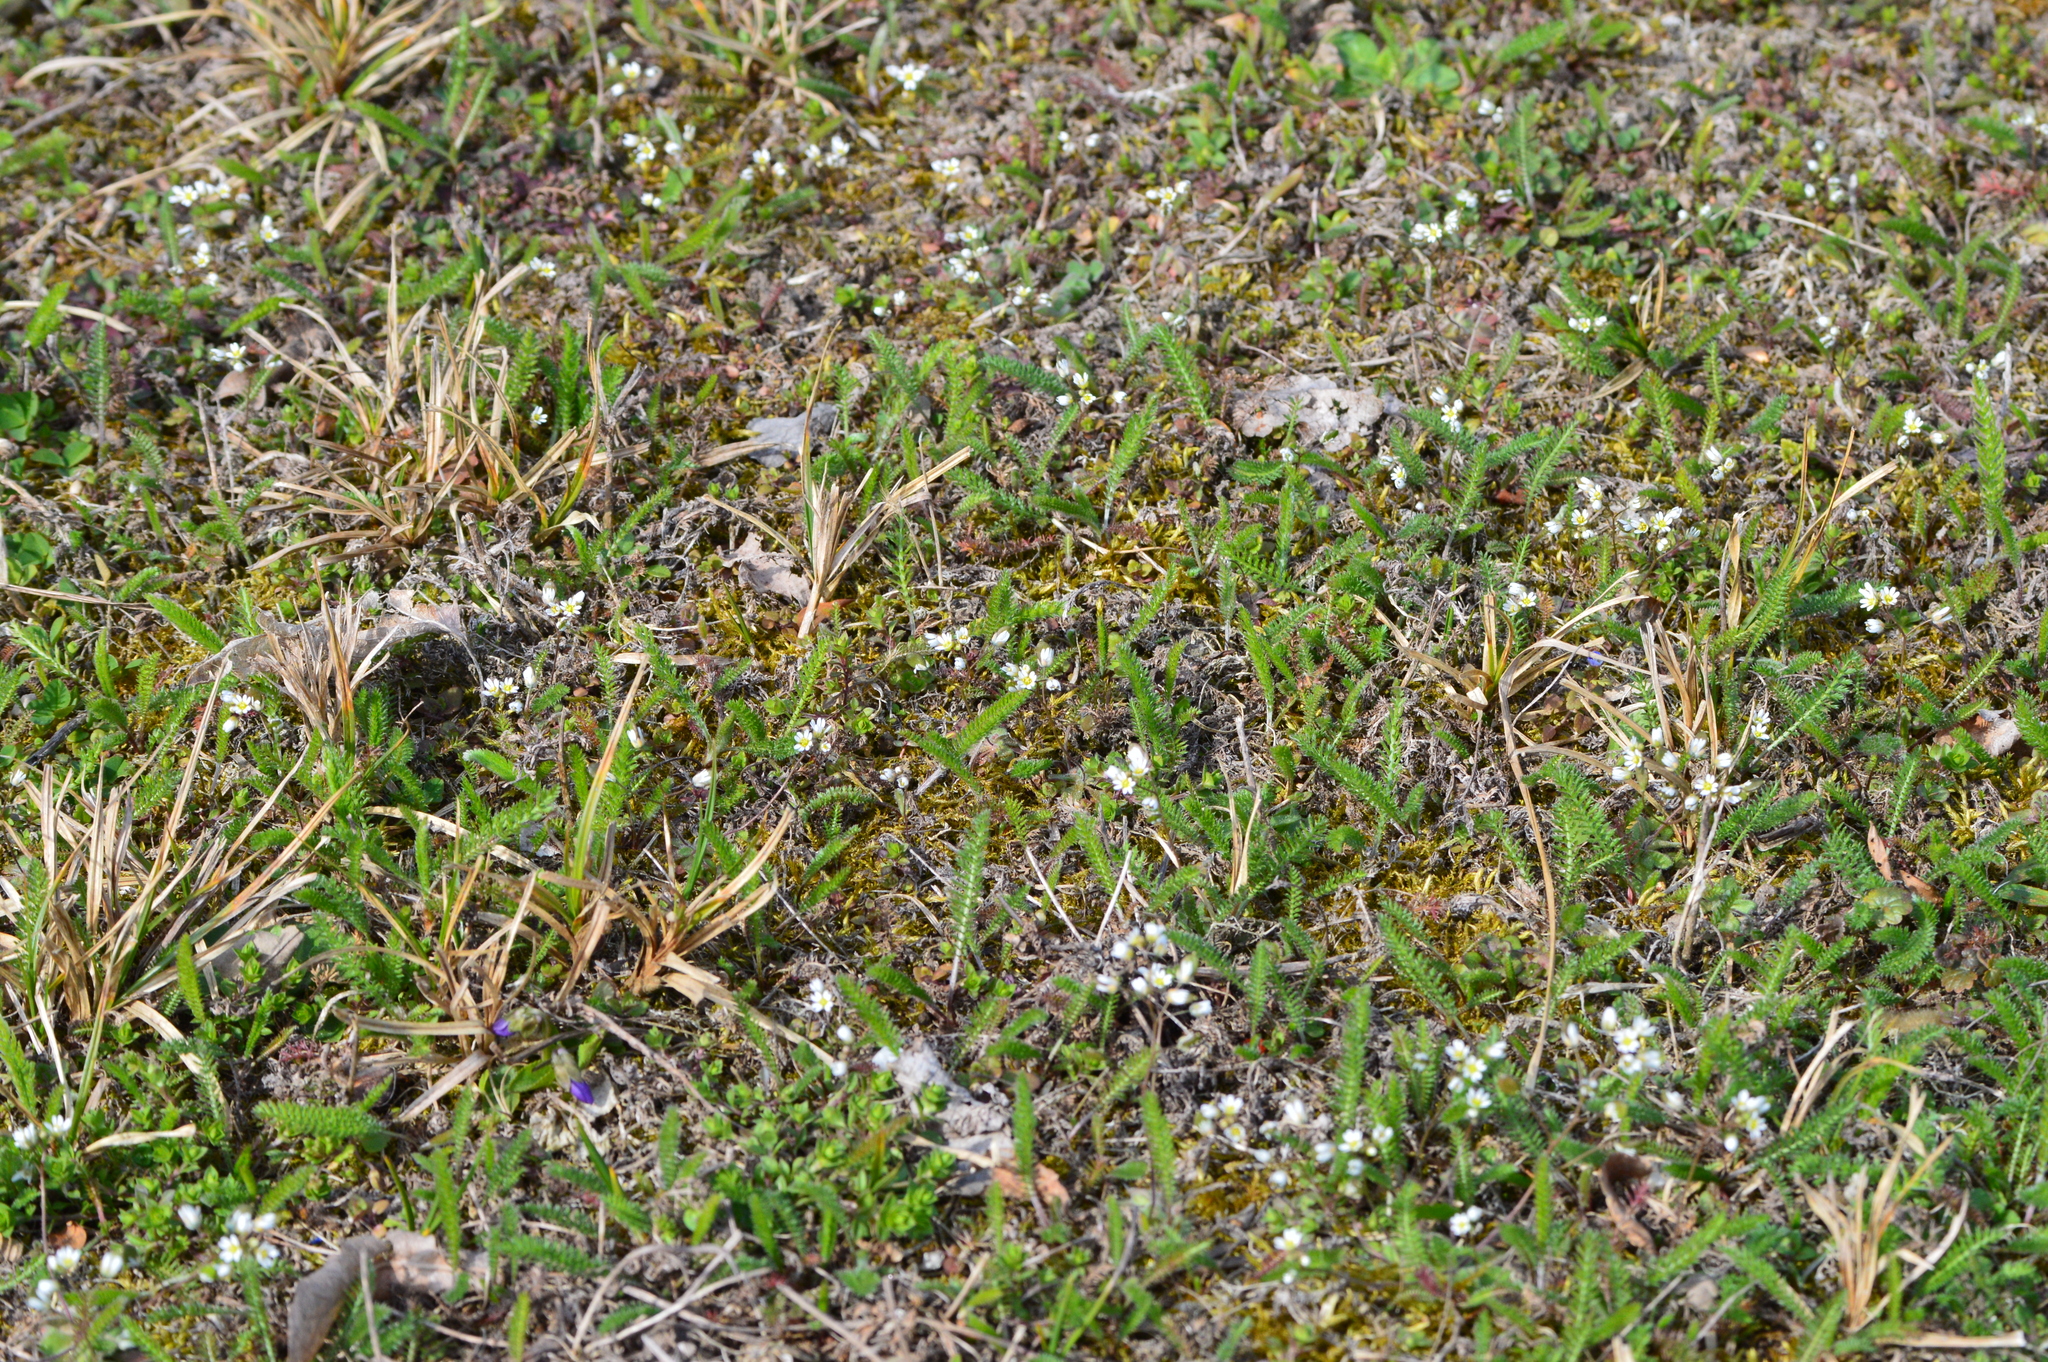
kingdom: Plantae
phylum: Tracheophyta
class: Magnoliopsida
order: Brassicales
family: Brassicaceae
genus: Draba
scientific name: Draba verna
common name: Spring draba
